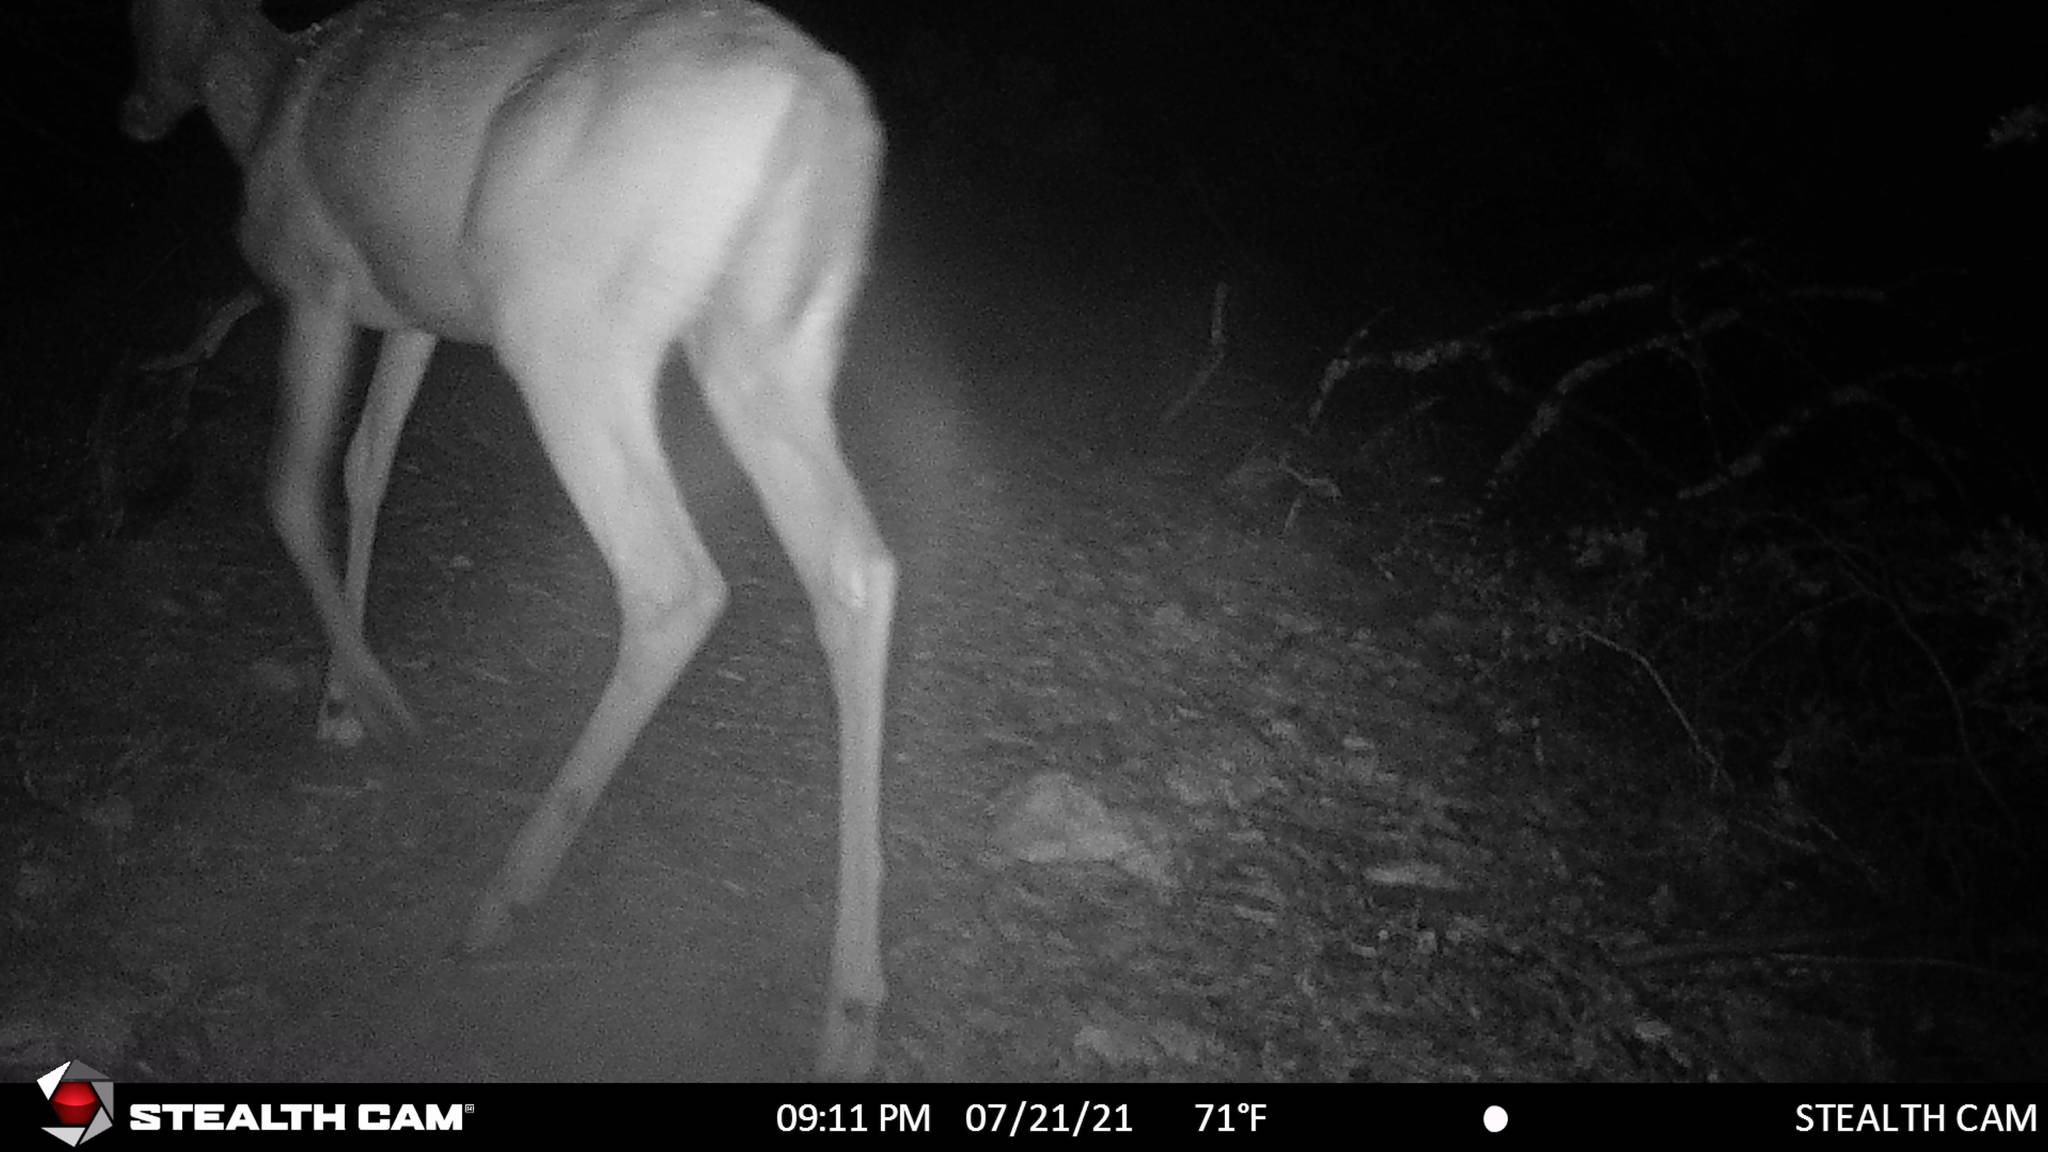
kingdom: Animalia
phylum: Chordata
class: Mammalia
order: Artiodactyla
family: Cervidae
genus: Odocoileus
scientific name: Odocoileus virginianus
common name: White-tailed deer
